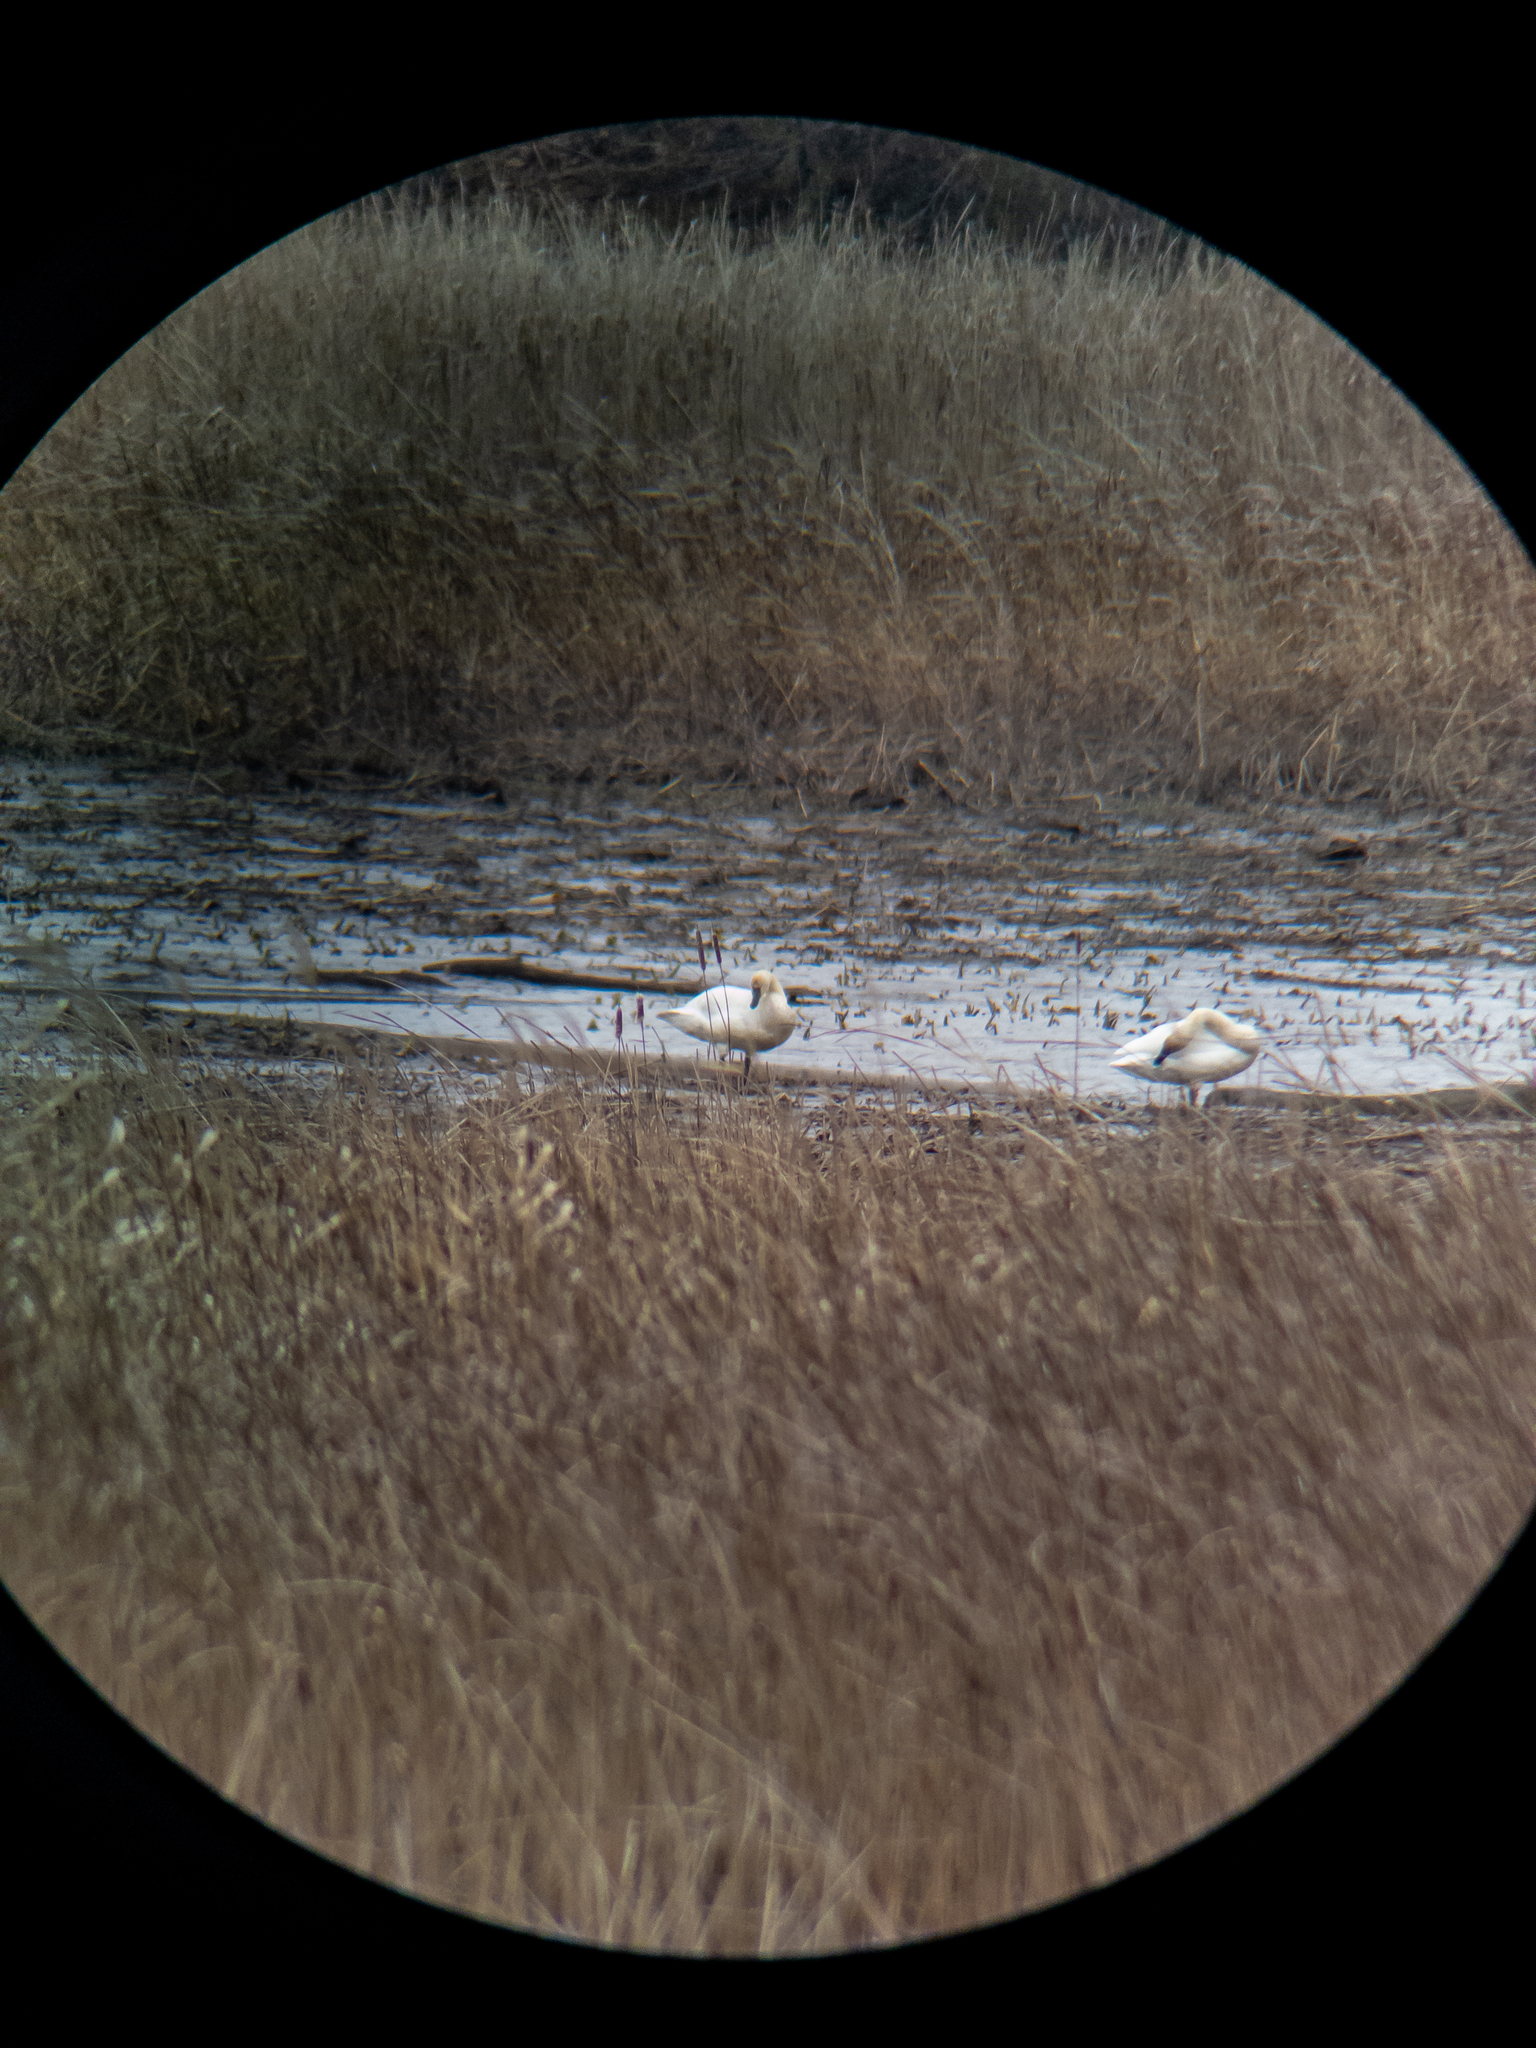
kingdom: Animalia
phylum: Chordata
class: Aves
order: Anseriformes
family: Anatidae
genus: Cygnus
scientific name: Cygnus columbianus
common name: Tundra swan
